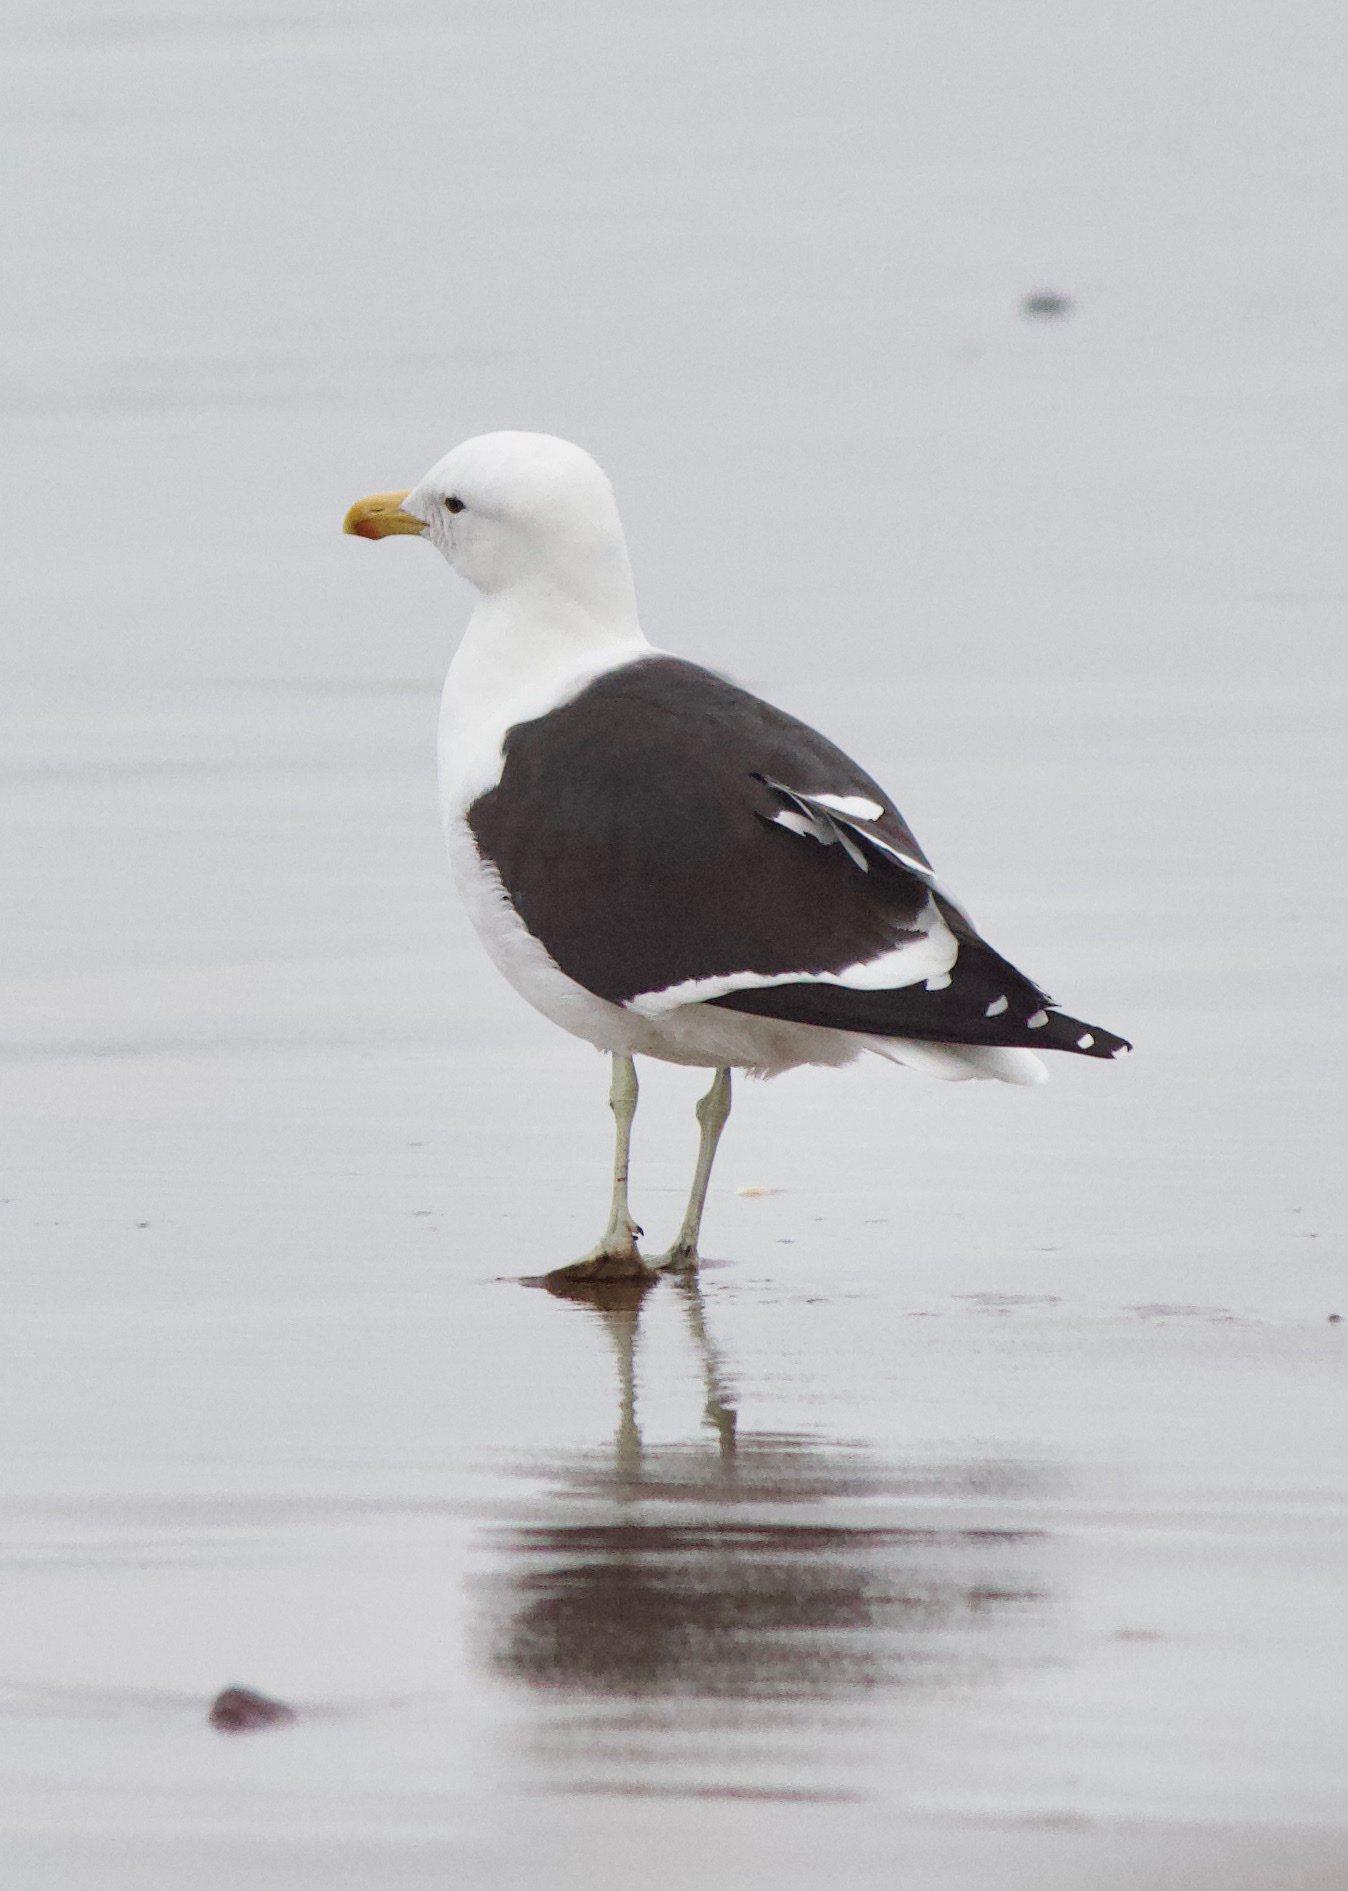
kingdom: Animalia
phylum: Chordata
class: Aves
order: Charadriiformes
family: Laridae
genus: Larus
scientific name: Larus dominicanus
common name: Kelp gull
